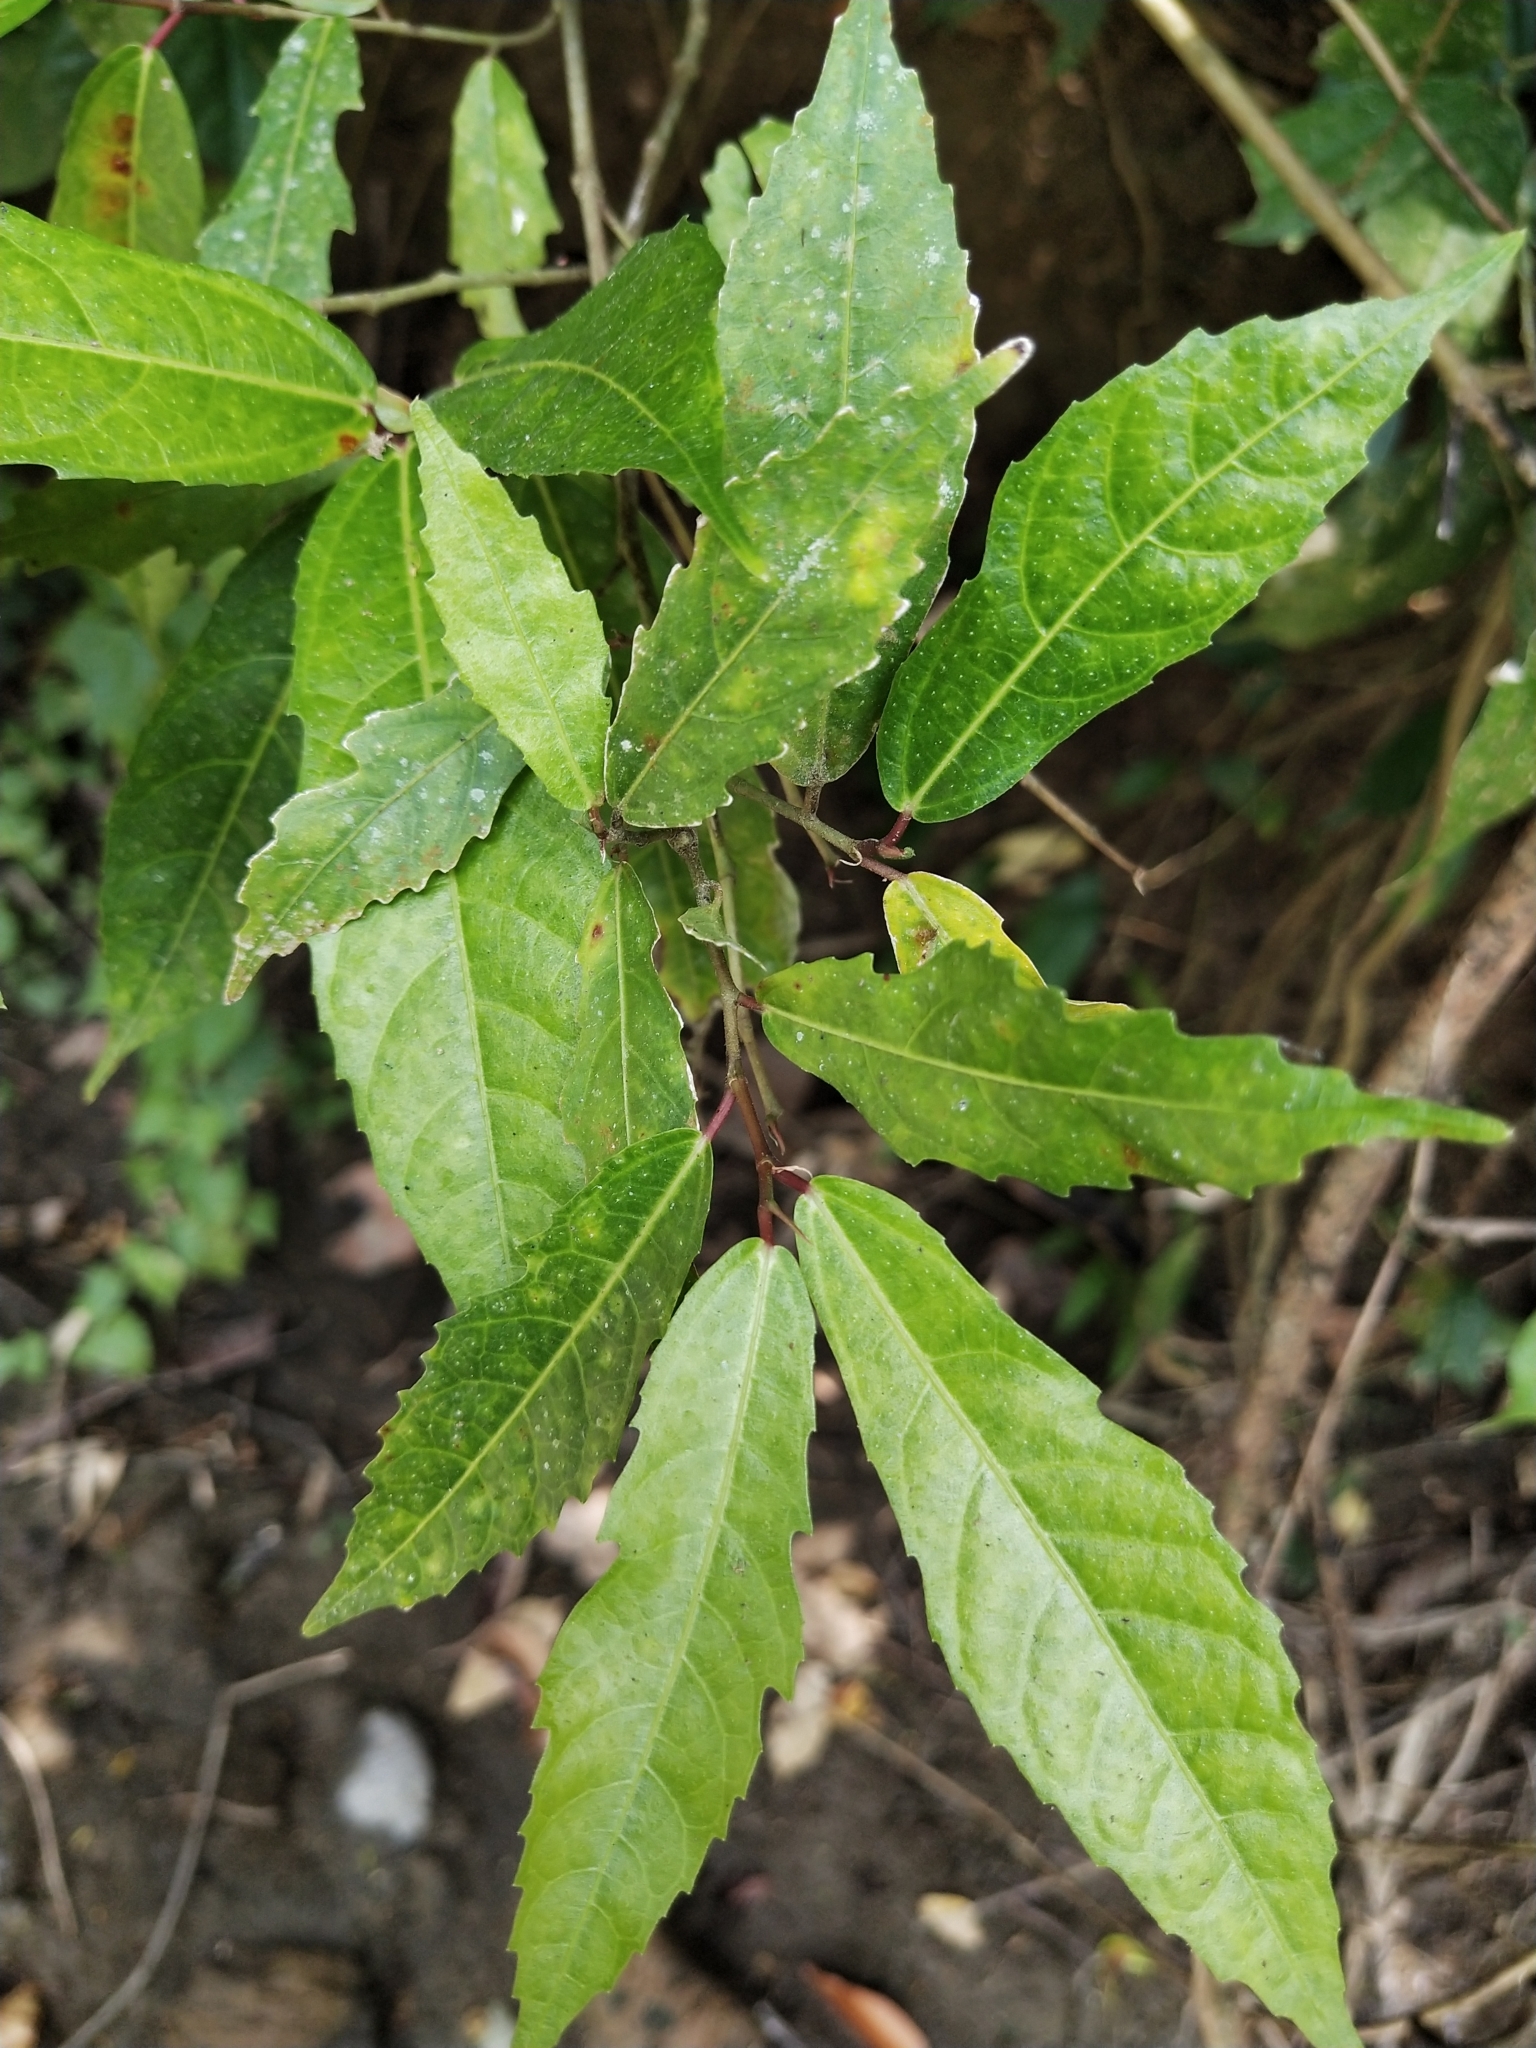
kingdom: Plantae
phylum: Tracheophyta
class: Magnoliopsida
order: Rosales
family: Moraceae
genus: Ficus
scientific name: Ficus ulmifolia
